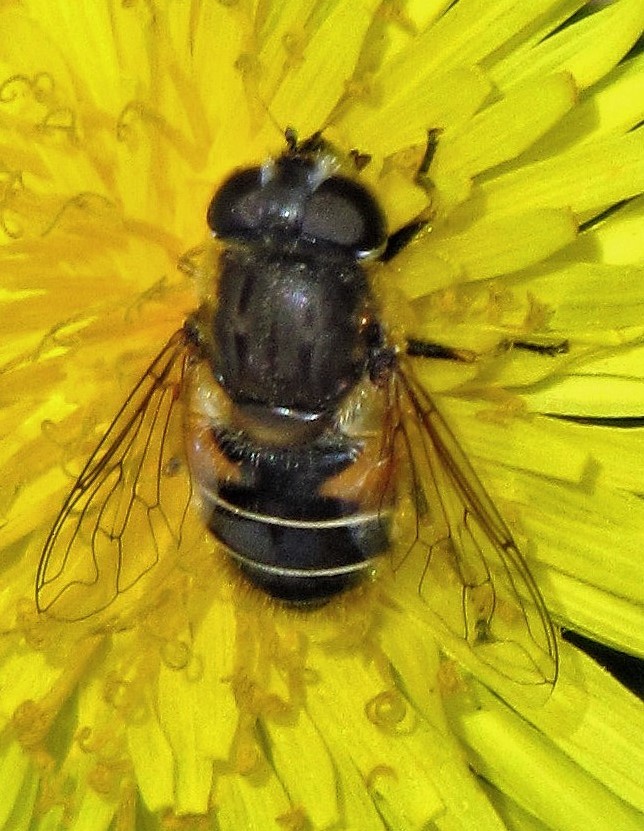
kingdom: Animalia
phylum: Arthropoda
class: Insecta
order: Diptera
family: Syrphidae
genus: Eristalis
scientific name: Eristalis croceimaculata
